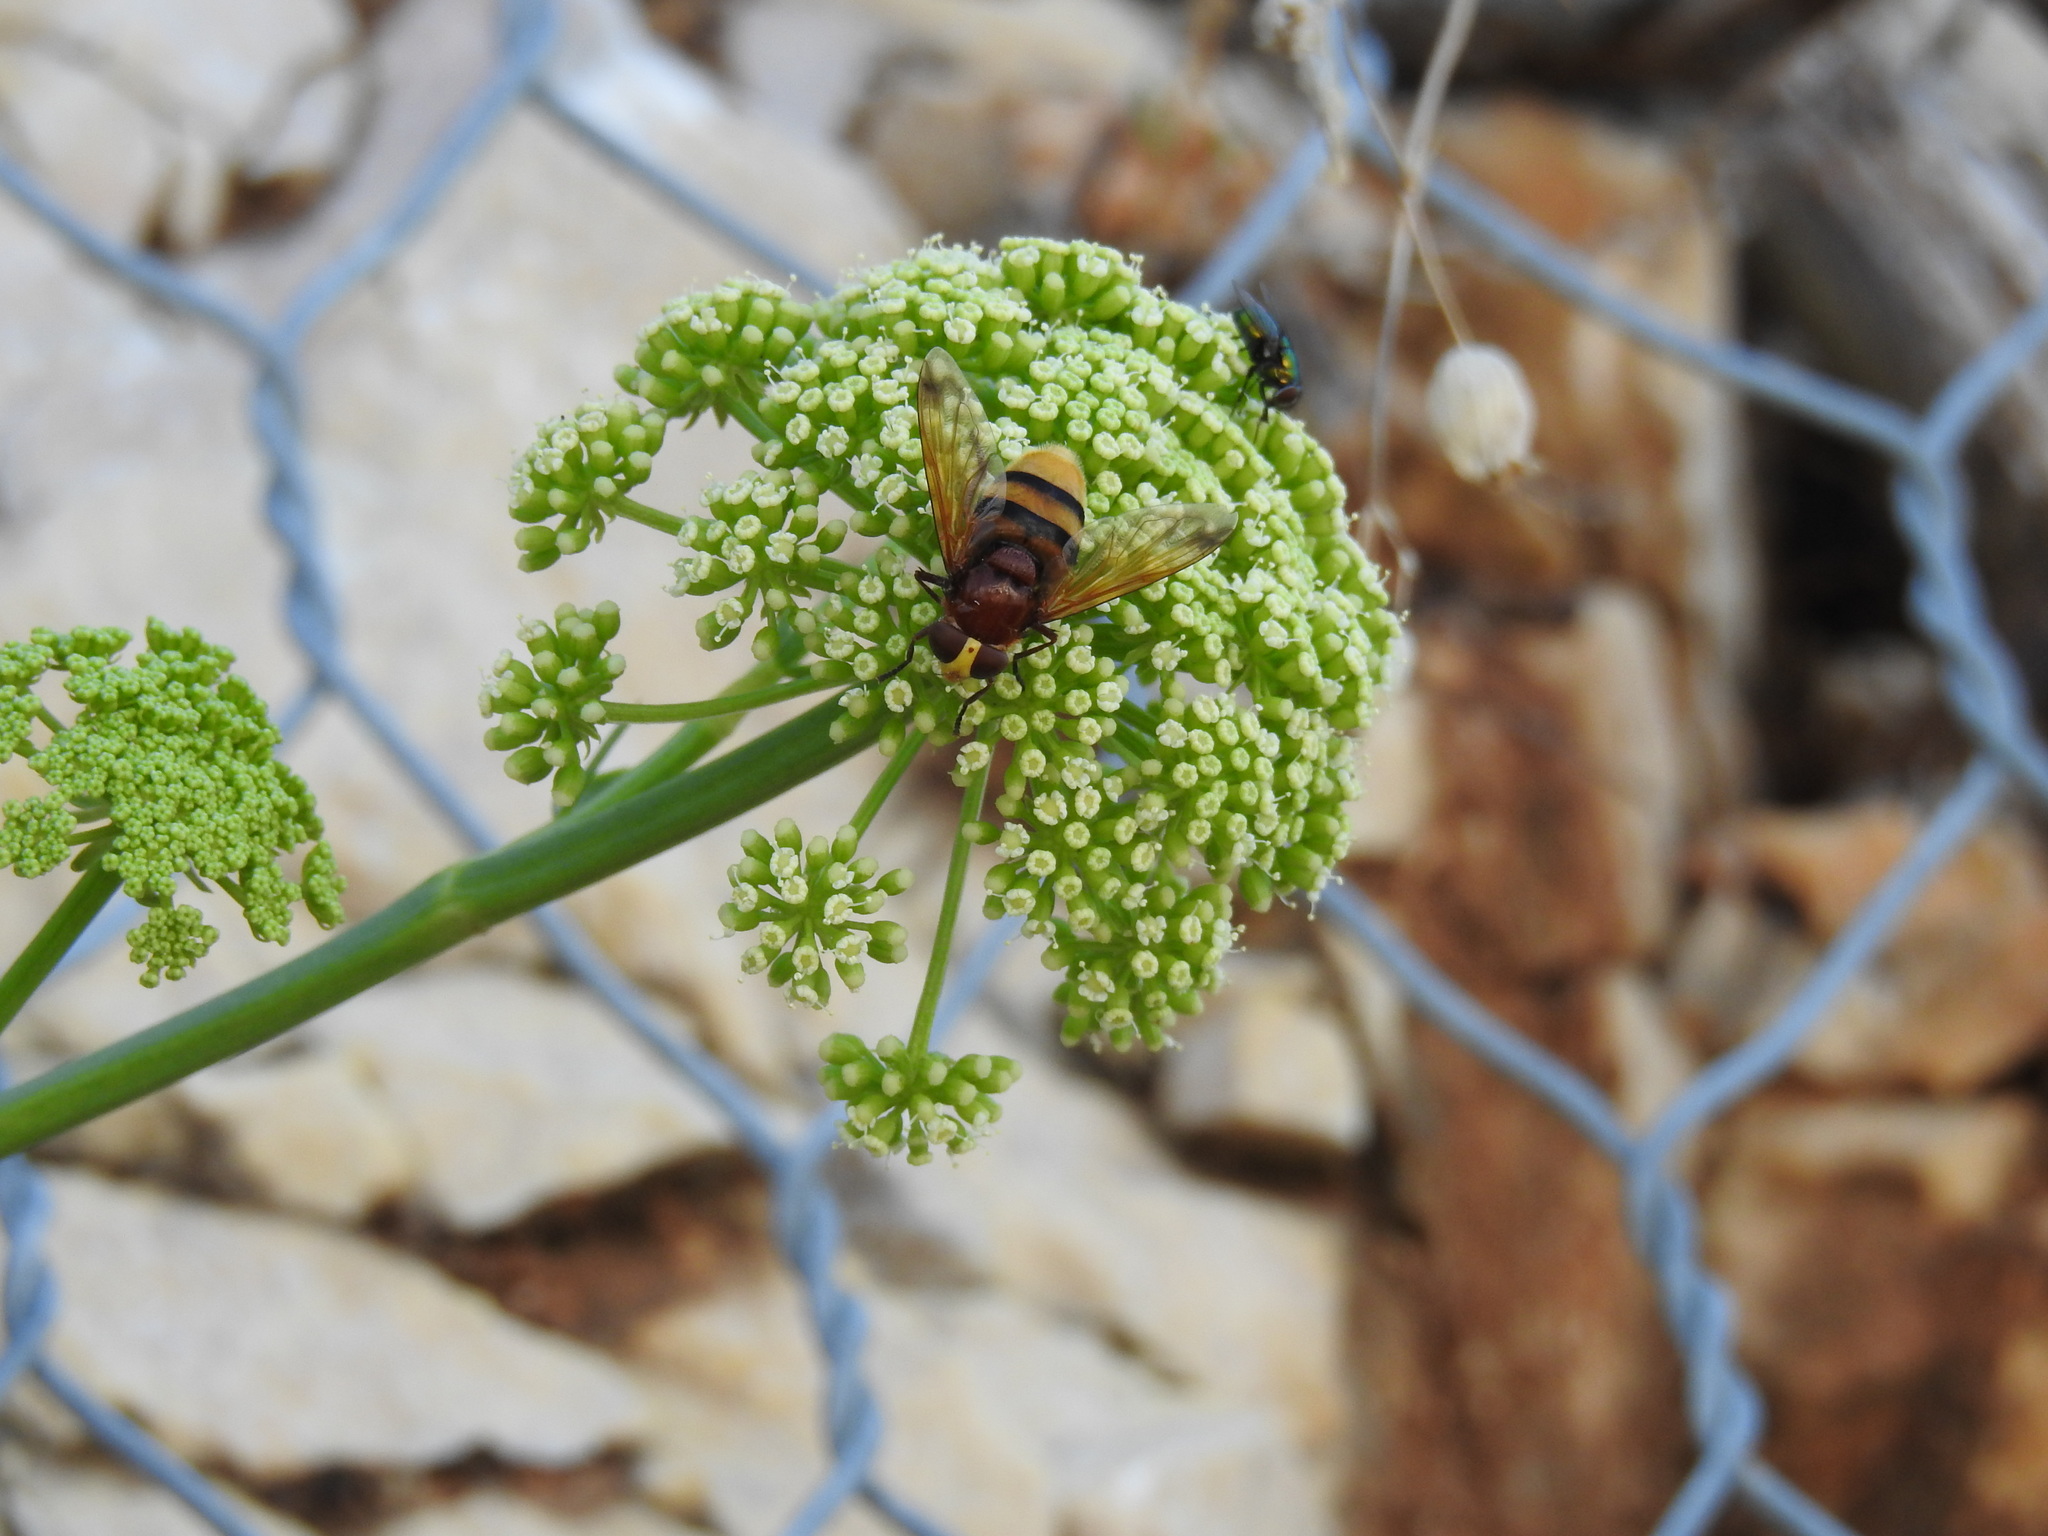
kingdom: Animalia
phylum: Arthropoda
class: Insecta
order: Diptera
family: Syrphidae
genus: Volucella
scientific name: Volucella zonaria
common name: Hornet hoverfly
